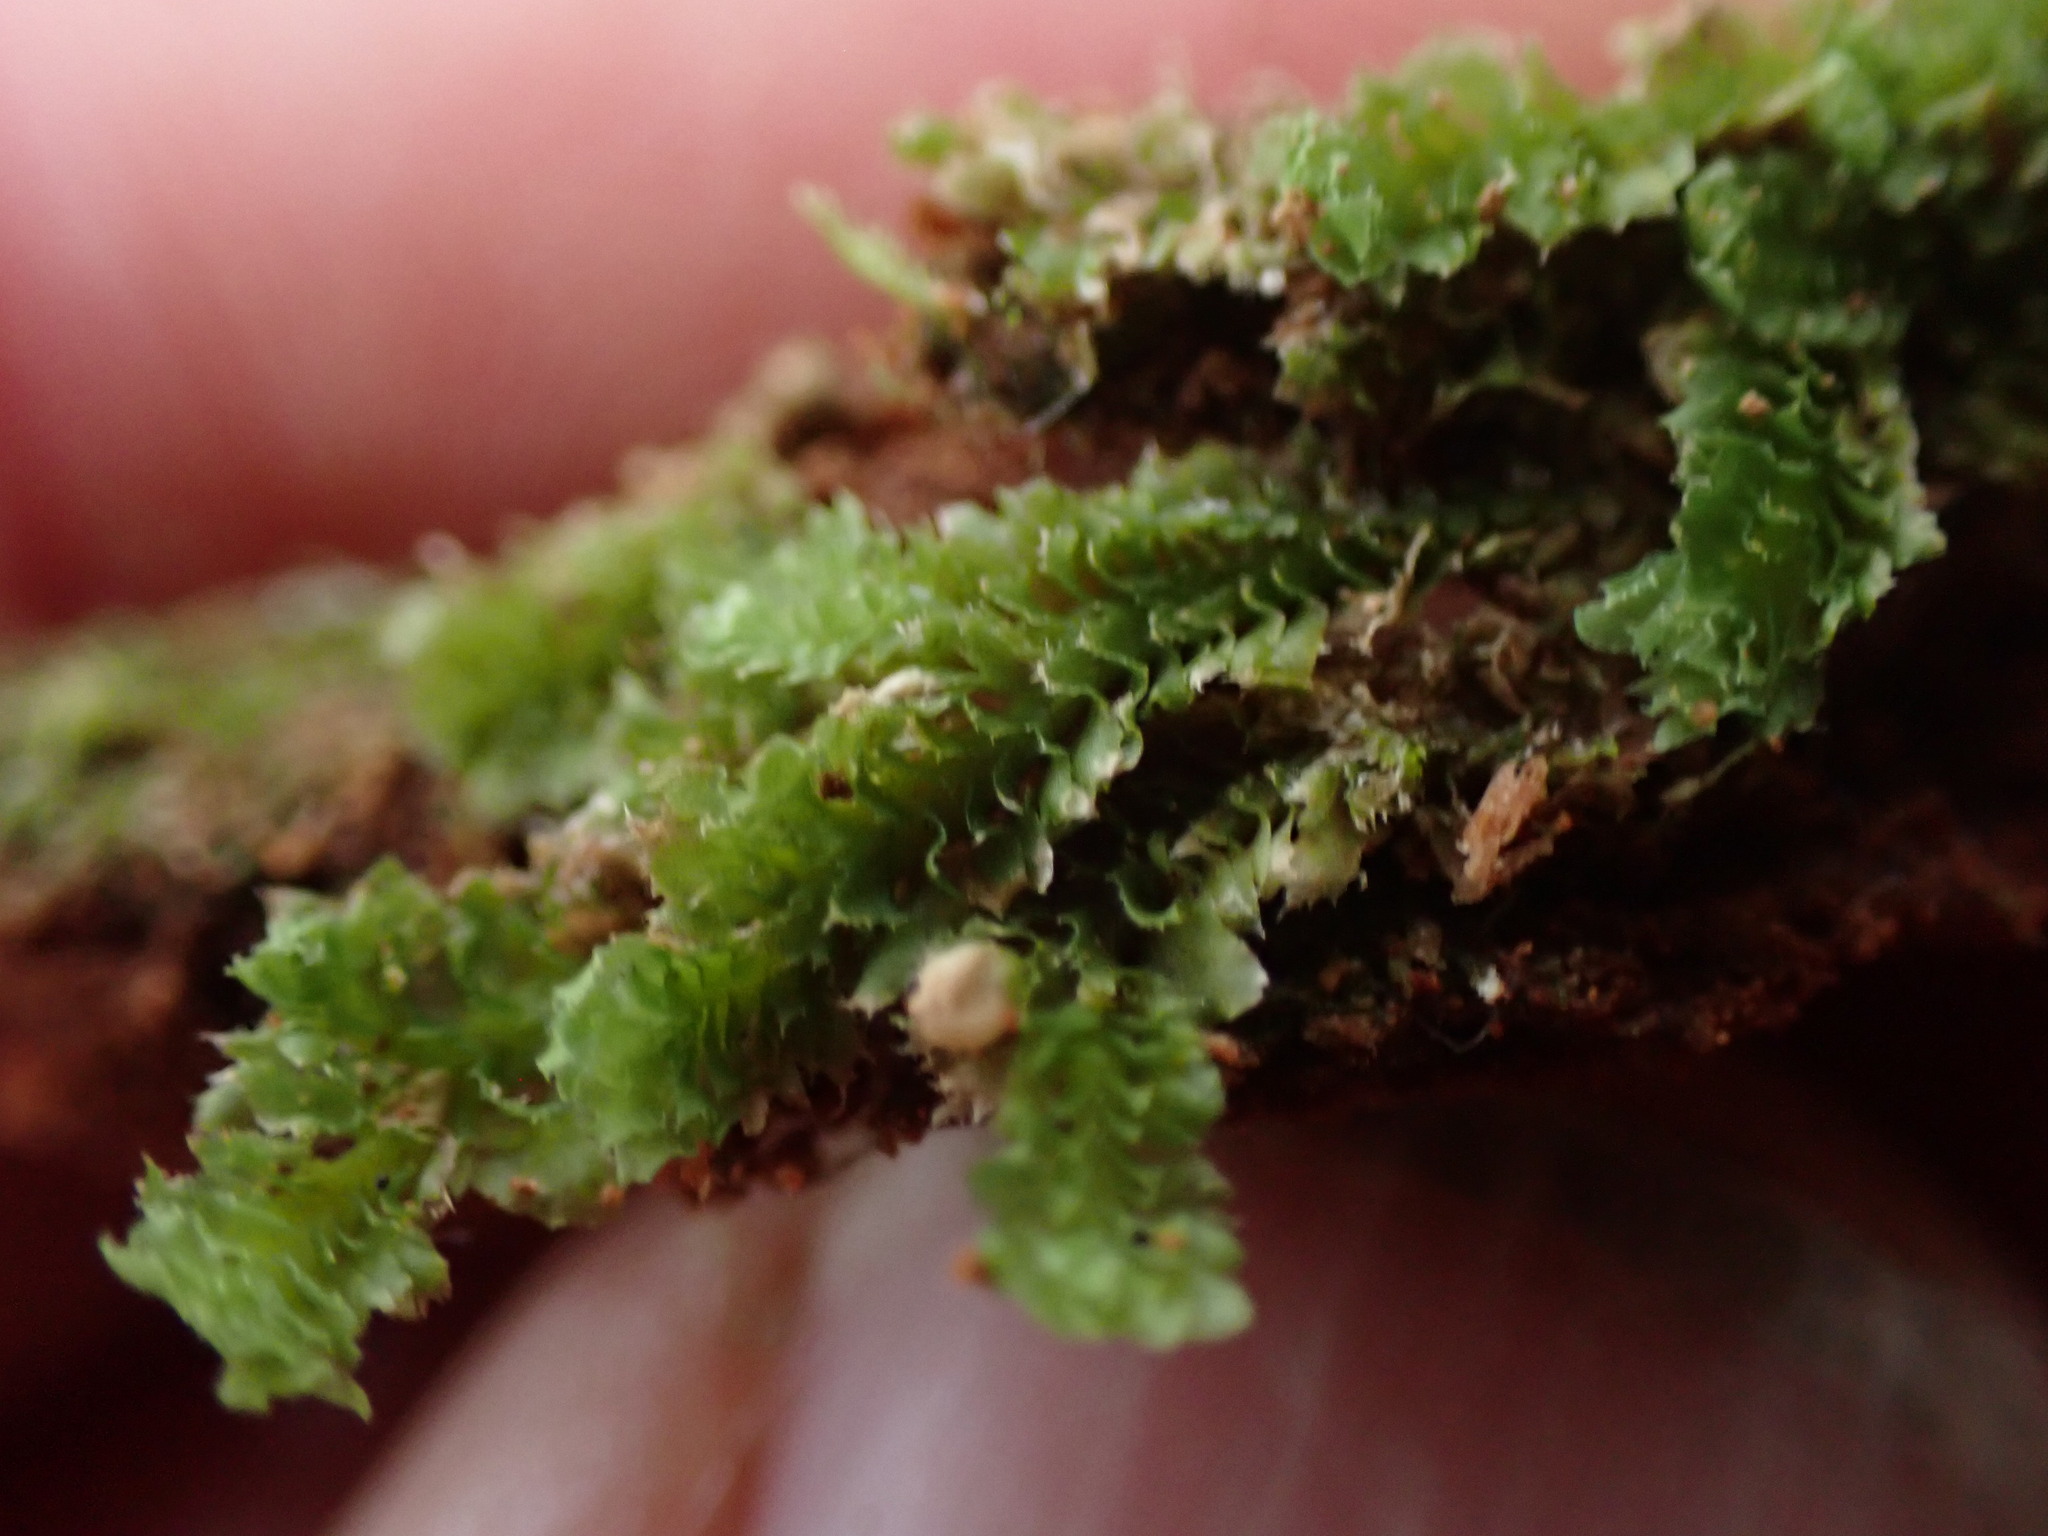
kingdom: Plantae
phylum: Marchantiophyta
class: Jungermanniopsida
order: Jungermanniales
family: Scapaniaceae
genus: Schistochilopsis
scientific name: Schistochilopsis incisa
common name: Jagged notchwort
